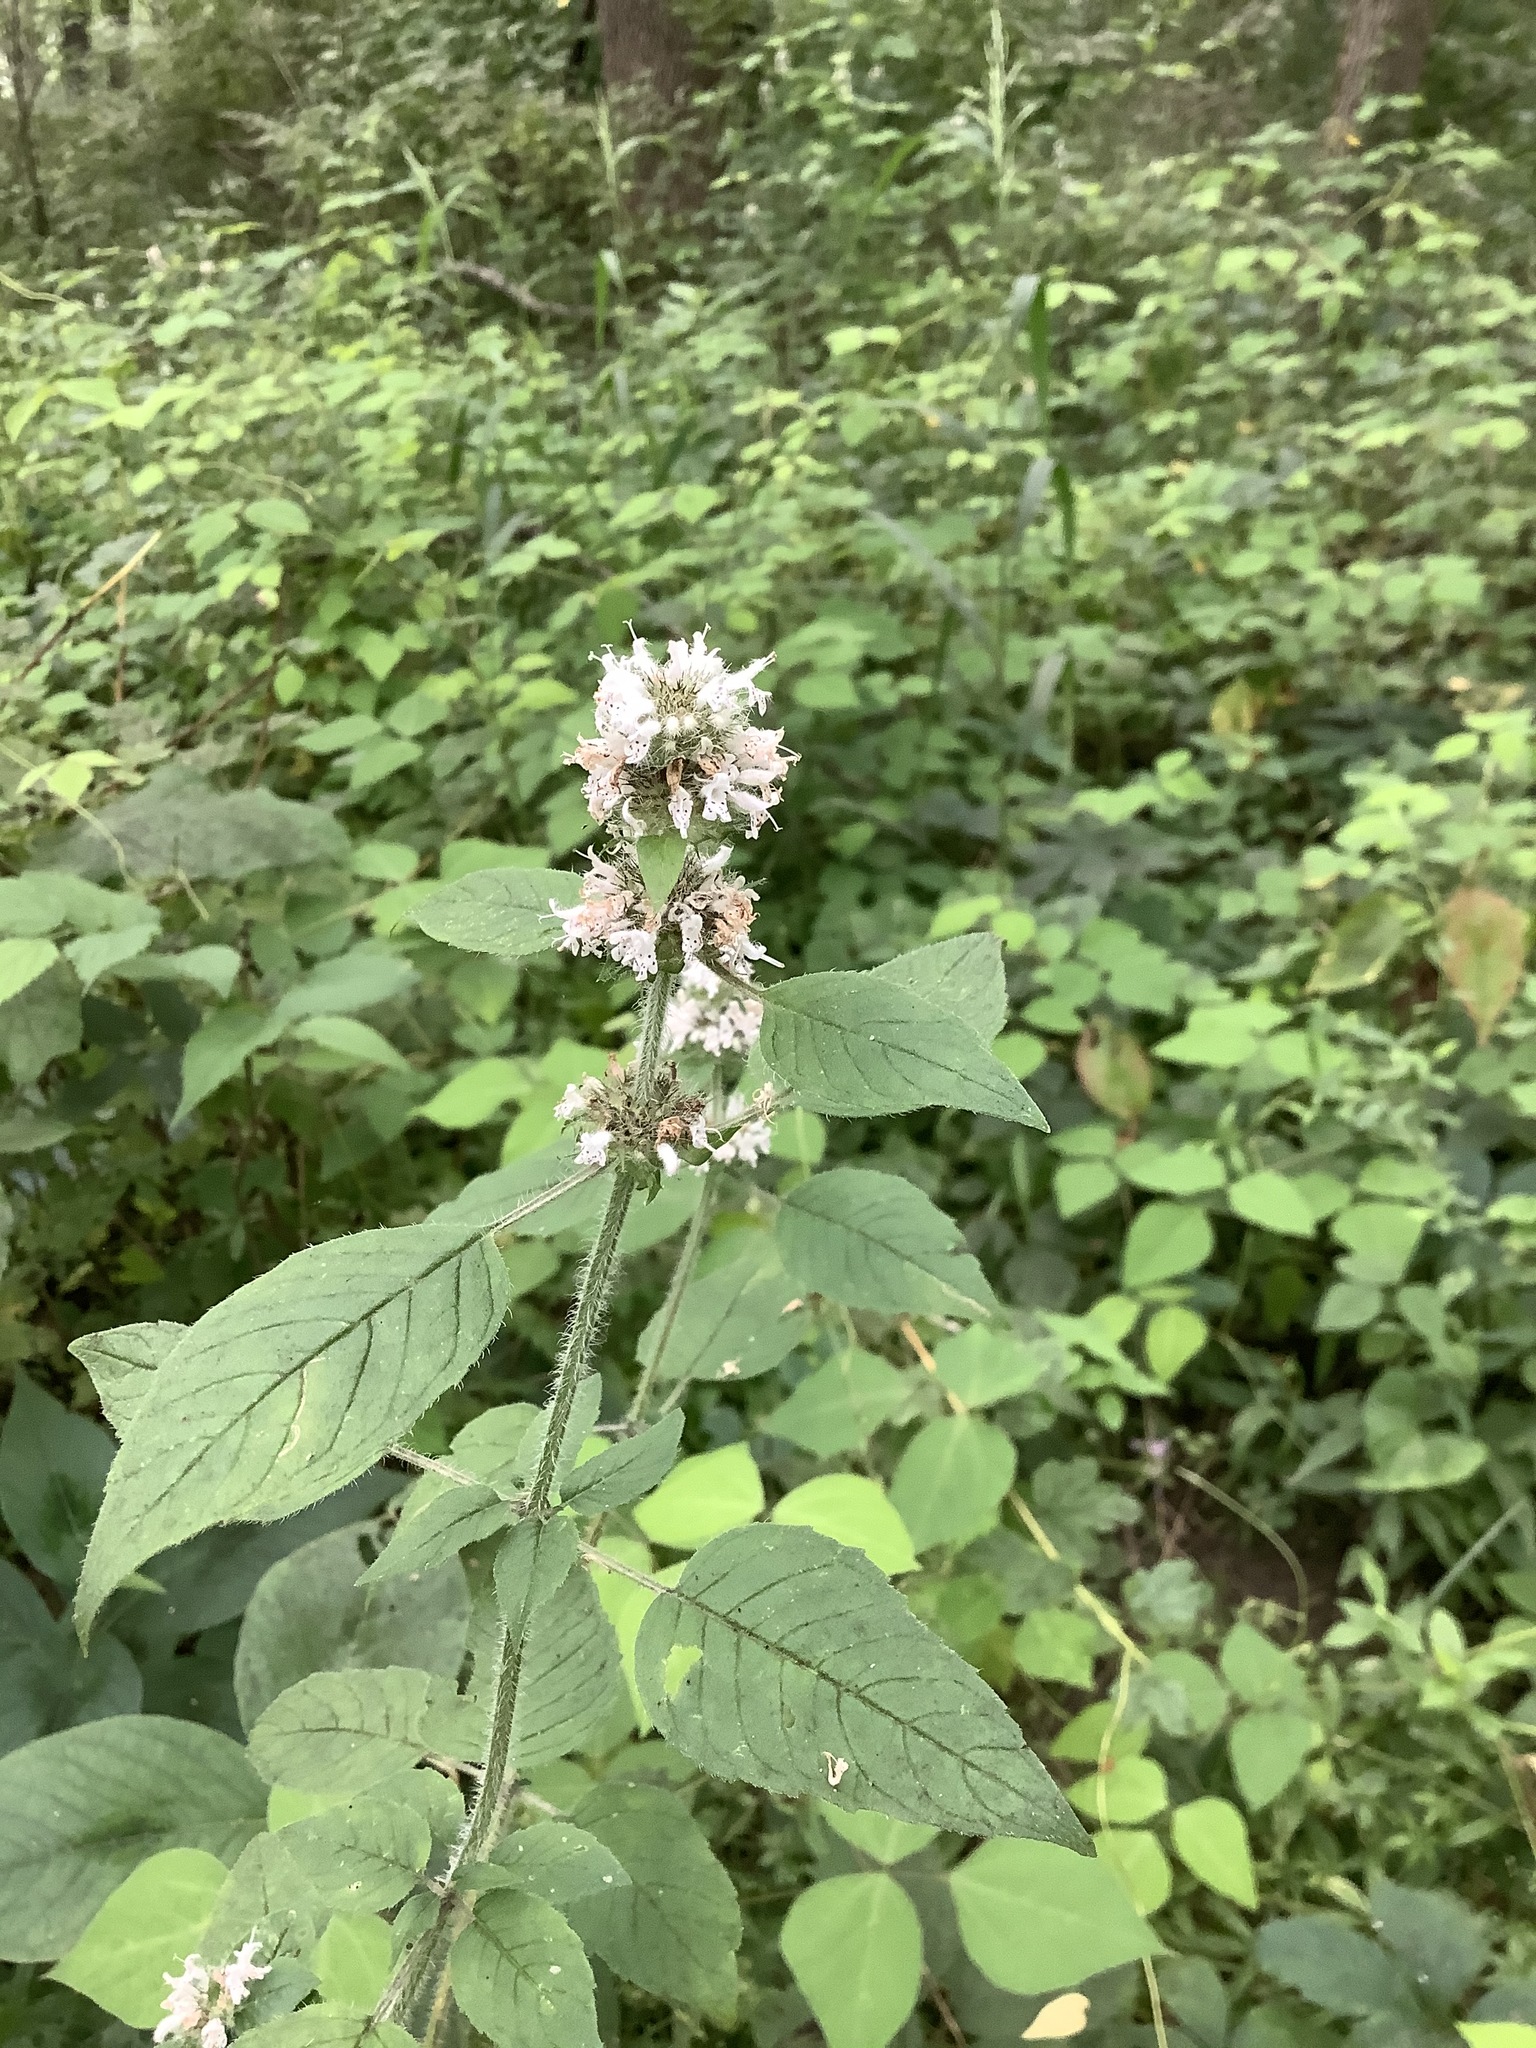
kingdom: Plantae
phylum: Tracheophyta
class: Magnoliopsida
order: Lamiales
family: Lamiaceae
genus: Blephilia
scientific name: Blephilia hirsuta
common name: Hairy blephilia
